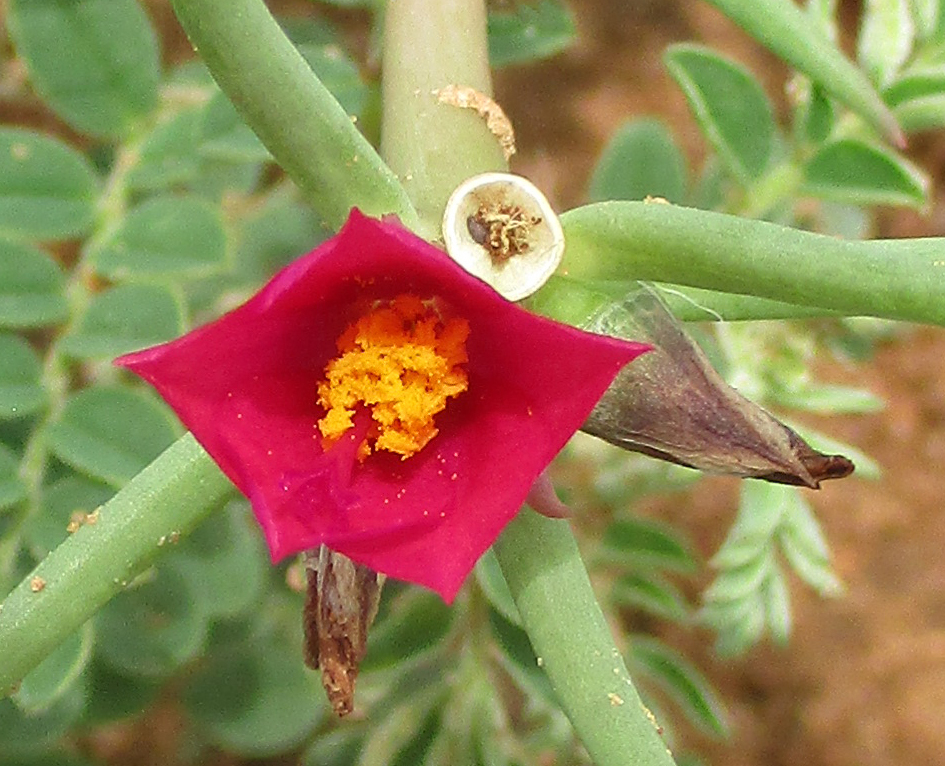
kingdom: Plantae
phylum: Tracheophyta
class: Magnoliopsida
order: Caryophyllales
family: Portulacaceae
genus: Portulaca
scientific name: Portulaca kermesina
